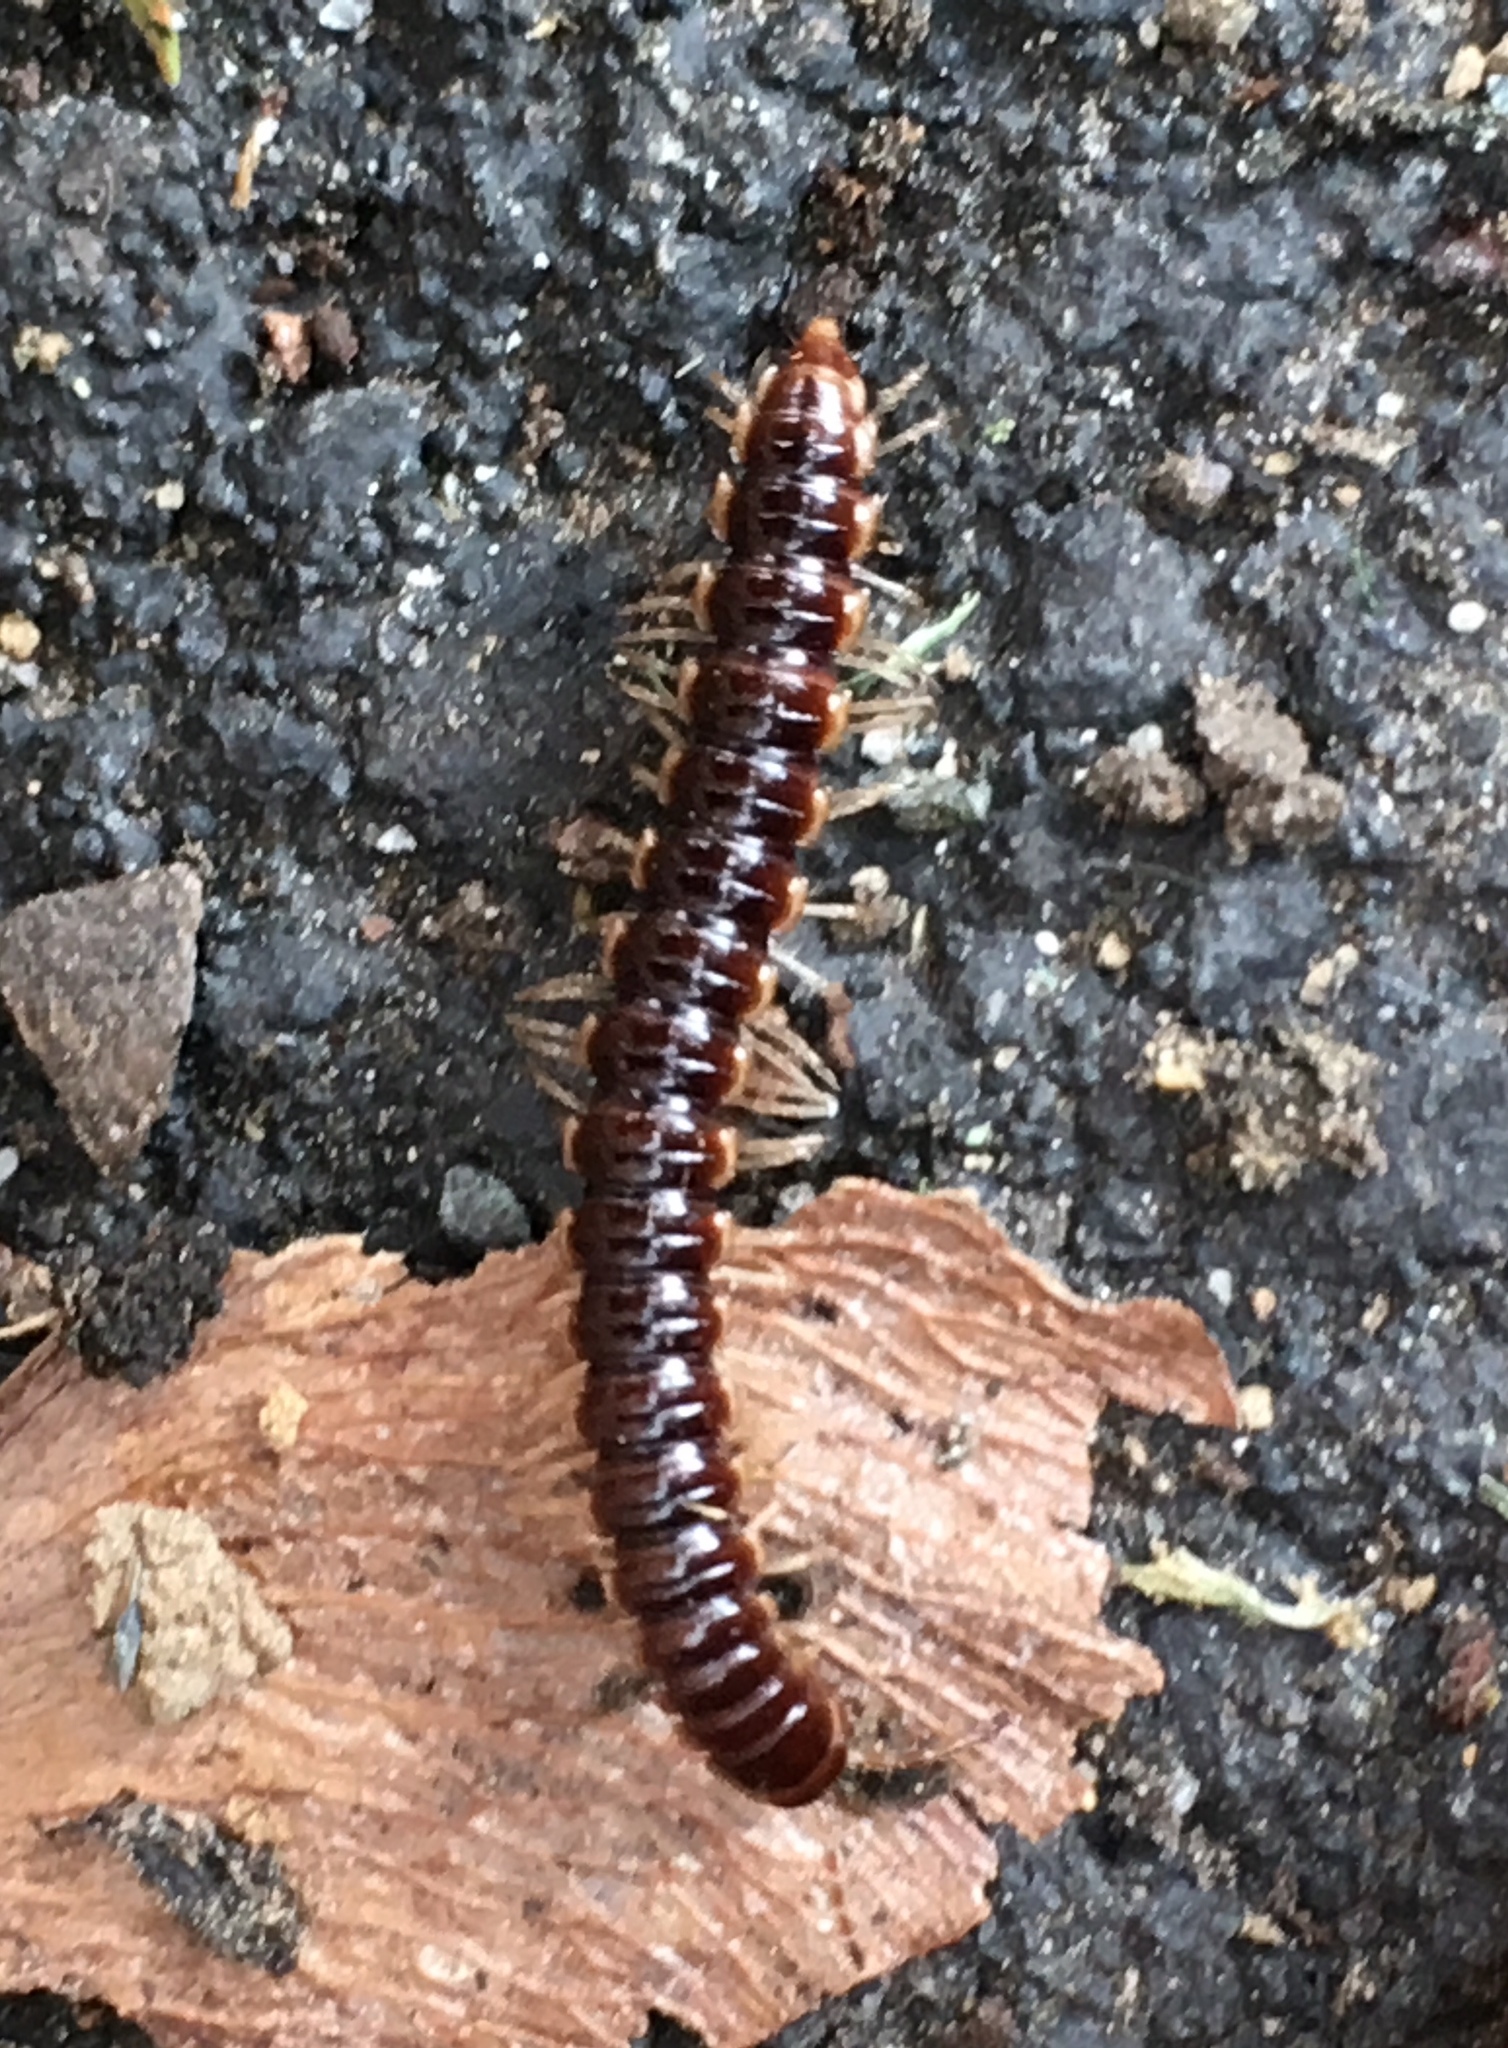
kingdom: Animalia
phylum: Arthropoda
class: Diplopoda
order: Polydesmida
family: Paradoxosomatidae
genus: Oxidus
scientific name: Oxidus gracilis
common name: Greenhouse millipede
